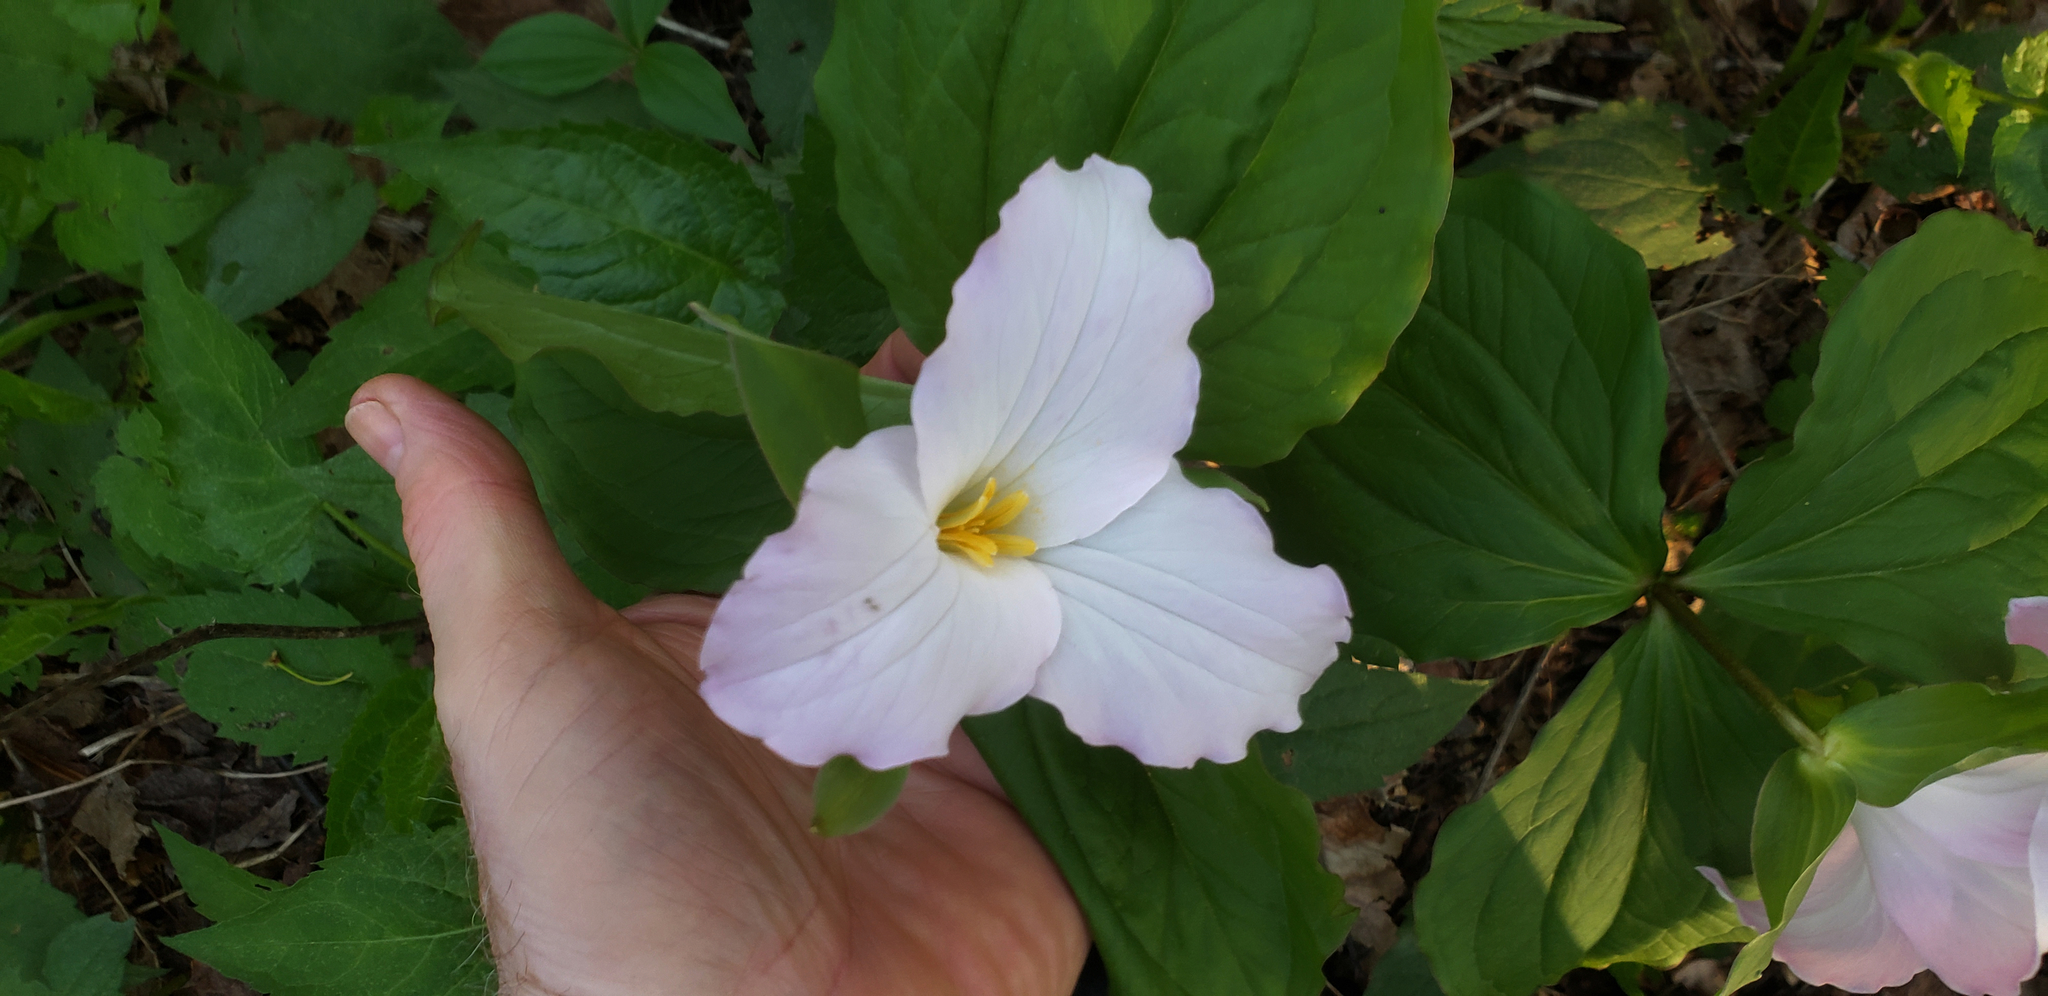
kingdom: Plantae
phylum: Tracheophyta
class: Liliopsida
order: Liliales
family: Melanthiaceae
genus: Trillium
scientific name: Trillium grandiflorum
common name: Great white trillium
